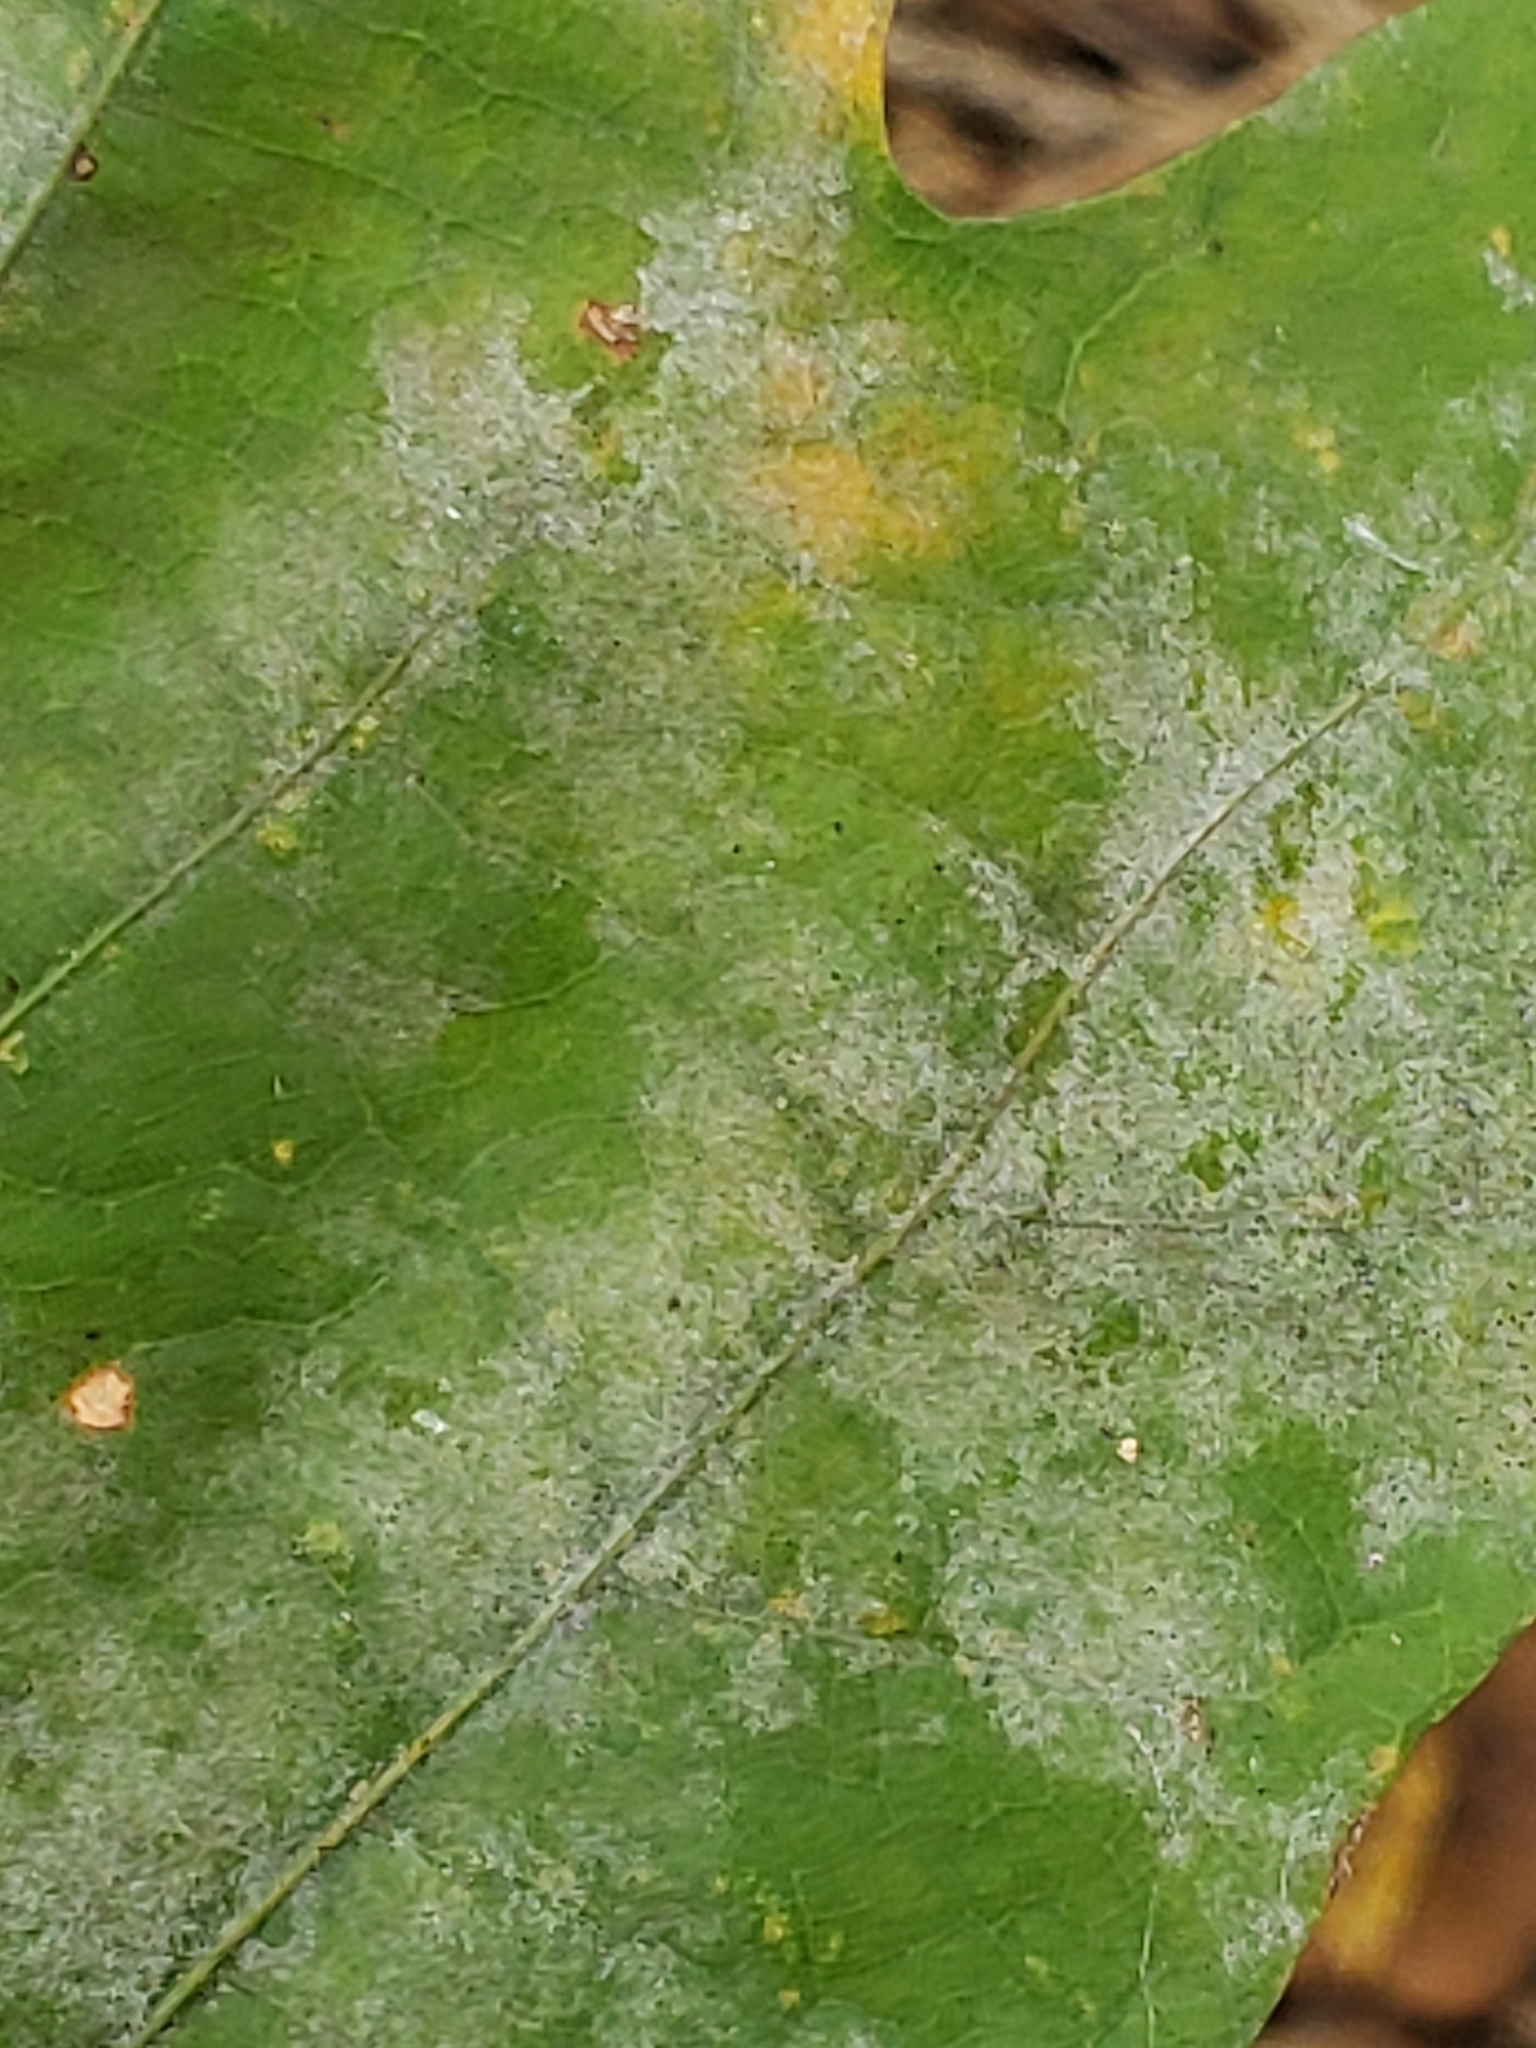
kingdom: Fungi
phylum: Ascomycota
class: Leotiomycetes
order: Helotiales
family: Erysiphaceae
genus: Erysiphe
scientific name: Erysiphe alphitoides
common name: Oak mildew
